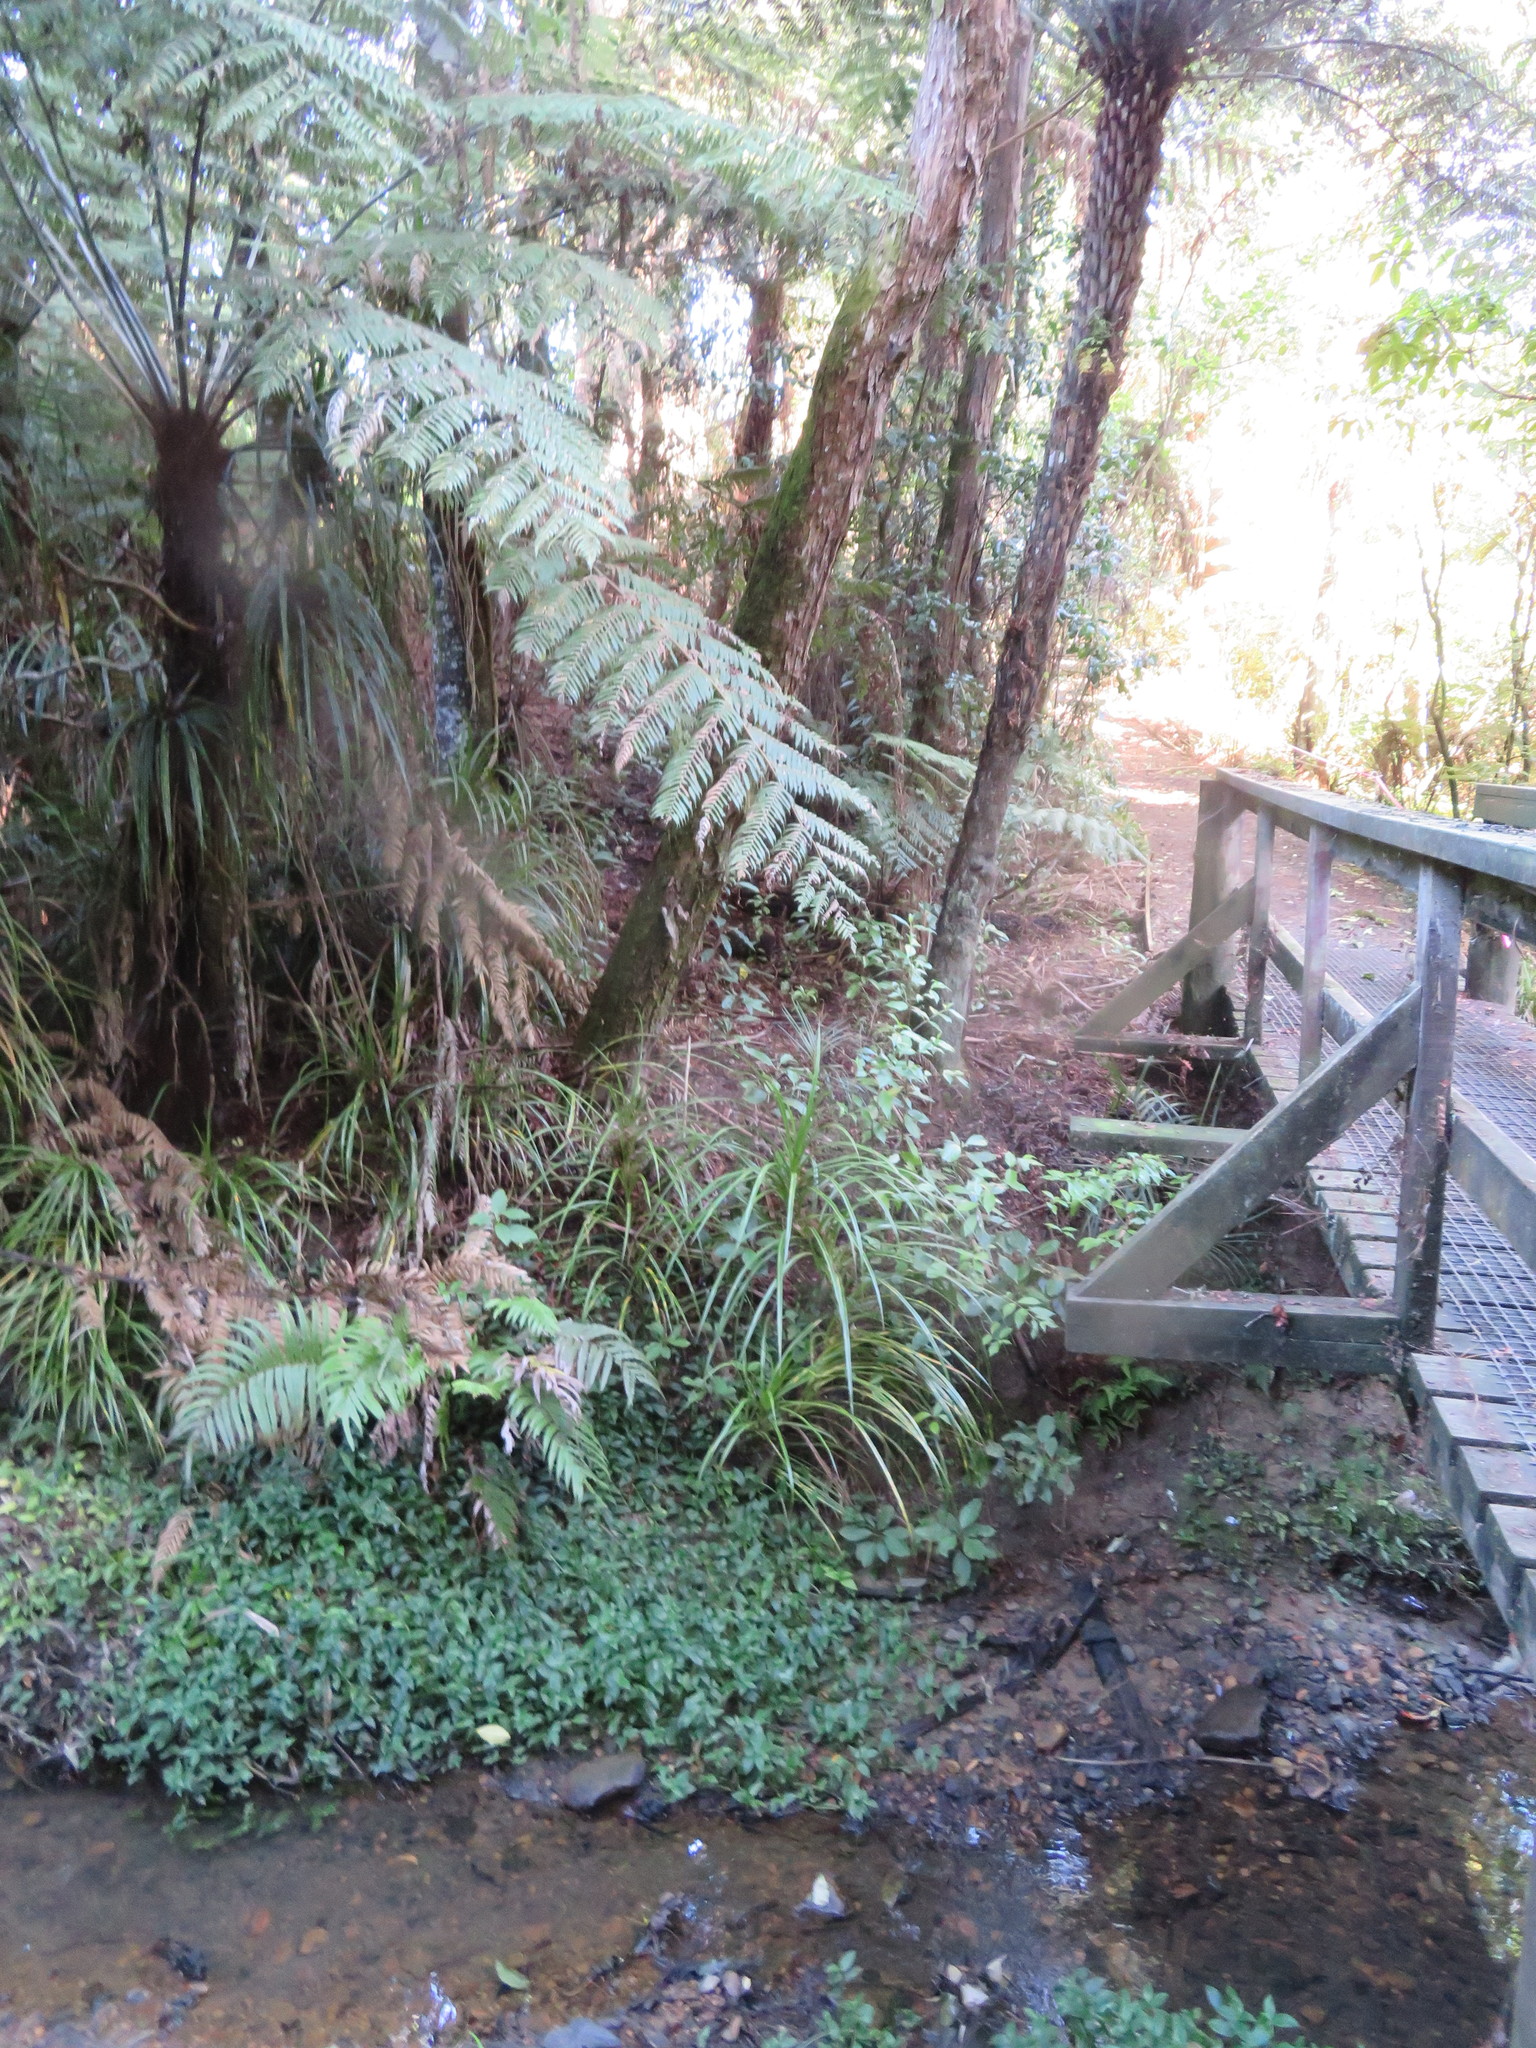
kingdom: Plantae
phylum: Tracheophyta
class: Polypodiopsida
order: Cyatheales
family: Cyatheaceae
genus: Alsophila
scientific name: Alsophila dealbata
